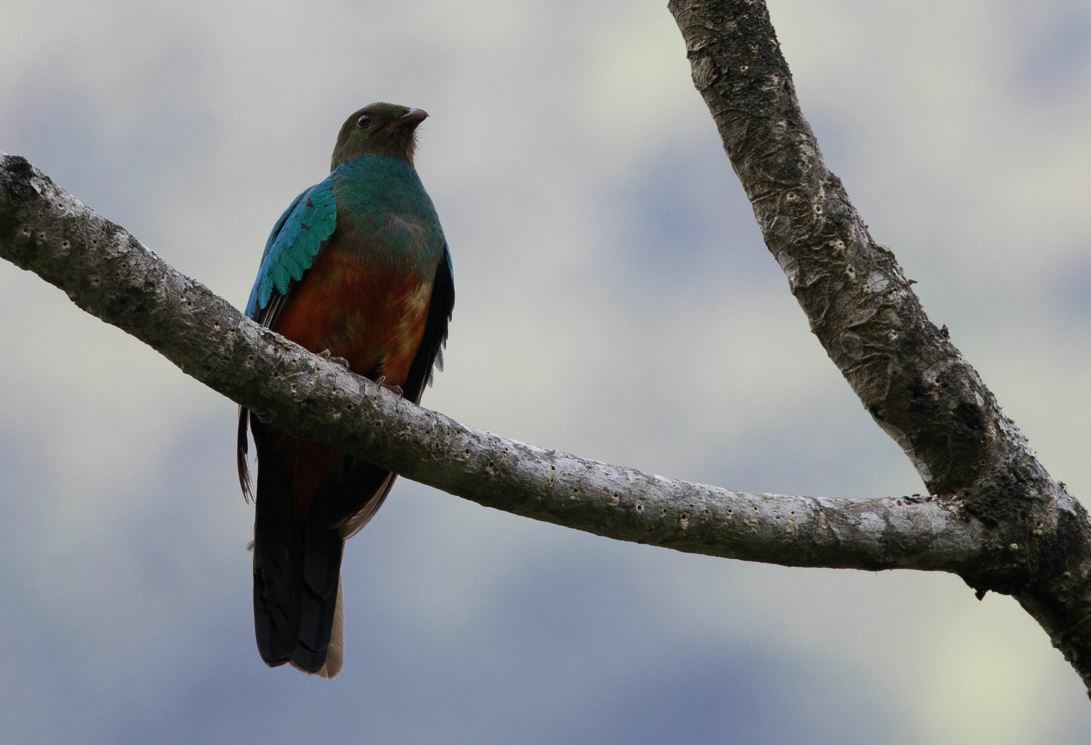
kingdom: Animalia
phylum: Chordata
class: Aves
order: Trogoniformes
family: Trogonidae
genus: Pharomachrus
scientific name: Pharomachrus auriceps
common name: Golden-headed quetzal
